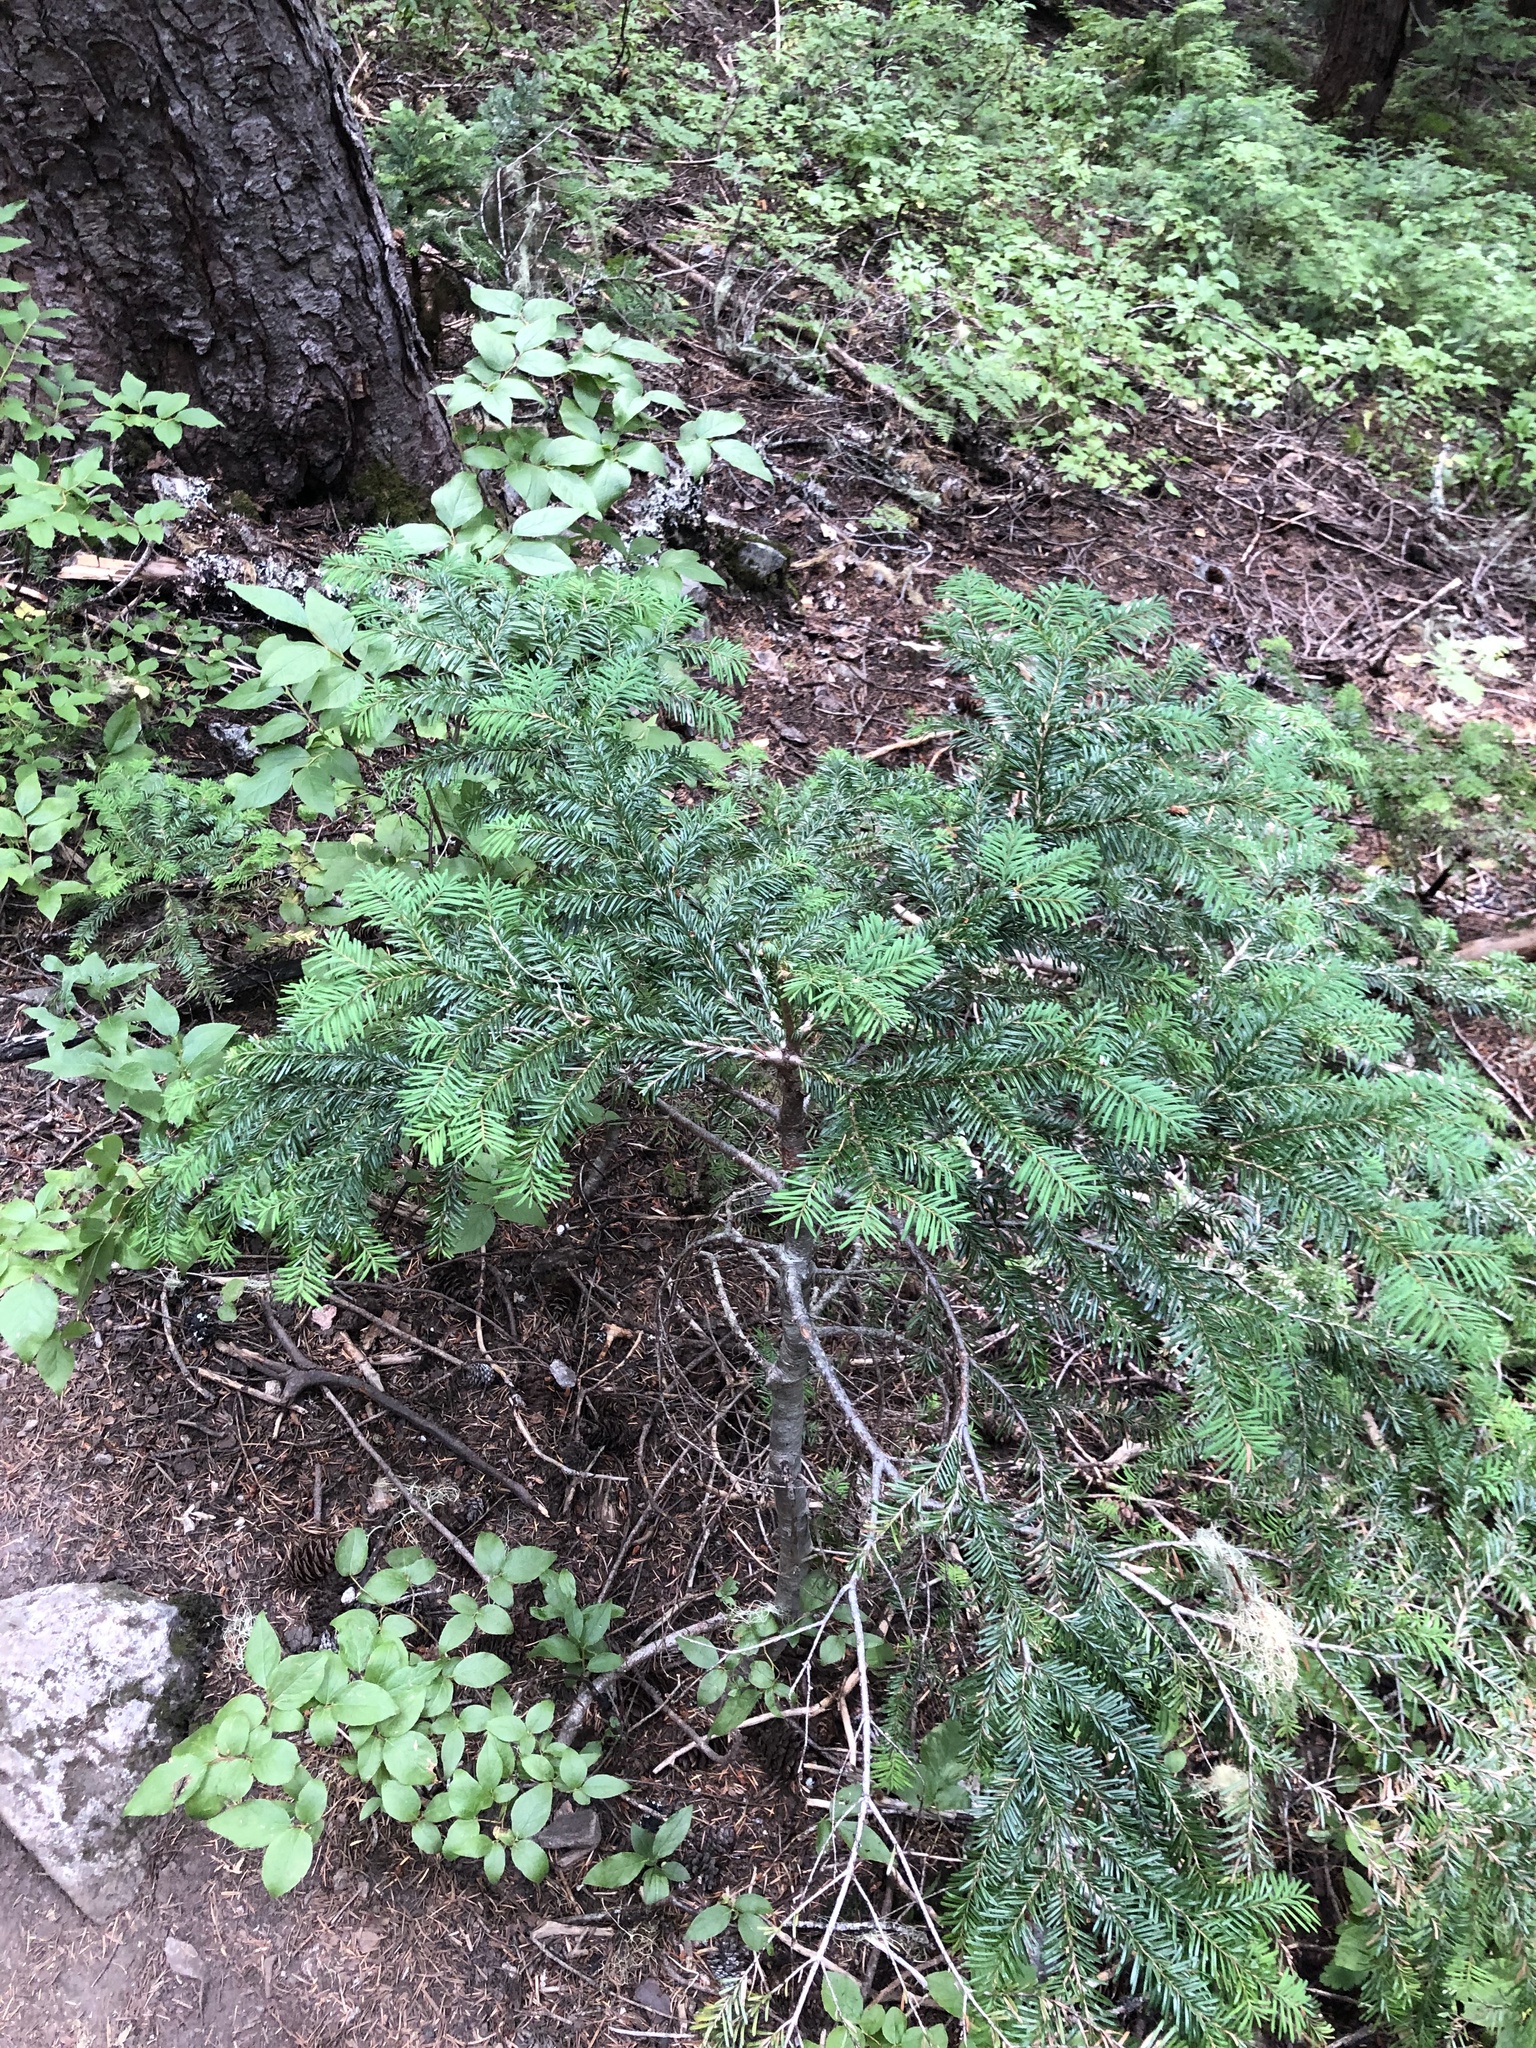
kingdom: Plantae
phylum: Tracheophyta
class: Pinopsida
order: Pinales
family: Pinaceae
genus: Abies
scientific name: Abies amabilis
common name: Pacific silver fir
